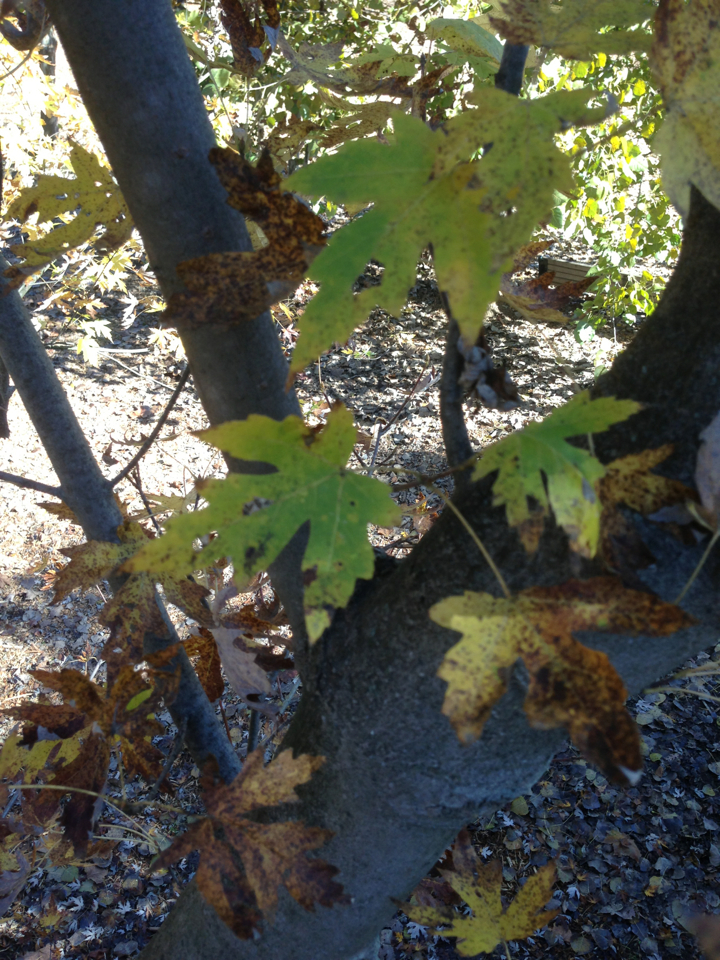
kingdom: Plantae
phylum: Tracheophyta
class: Magnoliopsida
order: Sapindales
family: Sapindaceae
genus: Acer
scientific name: Acer saccharinum
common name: Silver maple
